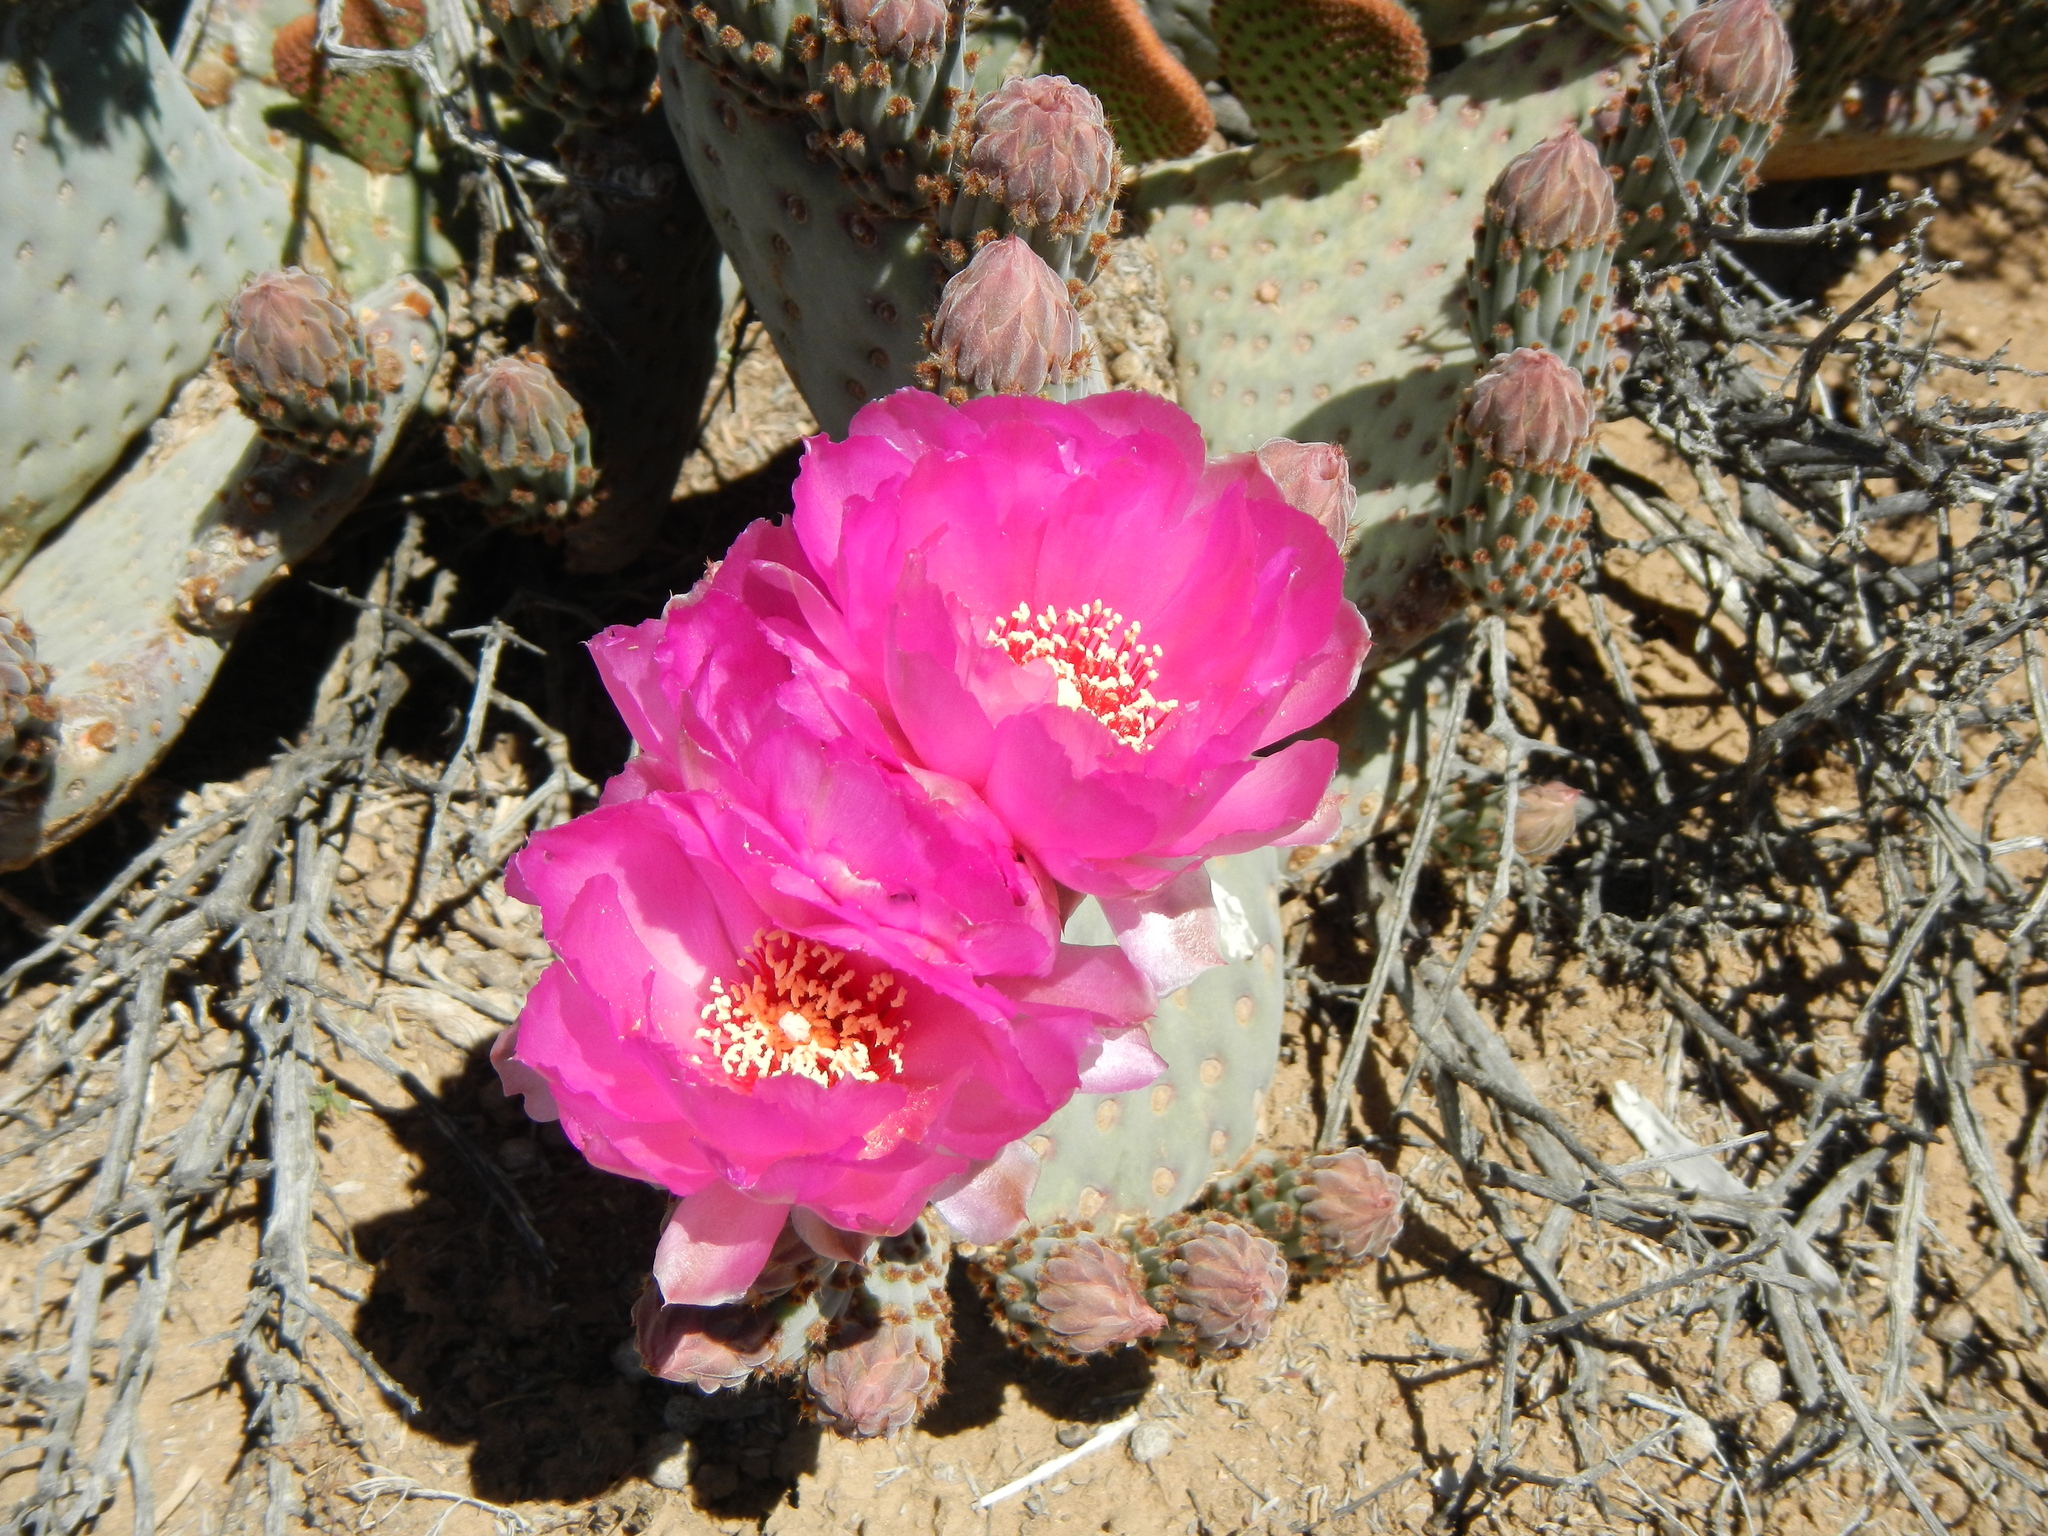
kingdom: Plantae
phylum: Tracheophyta
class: Magnoliopsida
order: Caryophyllales
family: Cactaceae
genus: Opuntia
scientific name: Opuntia basilaris
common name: Beavertail prickly-pear
